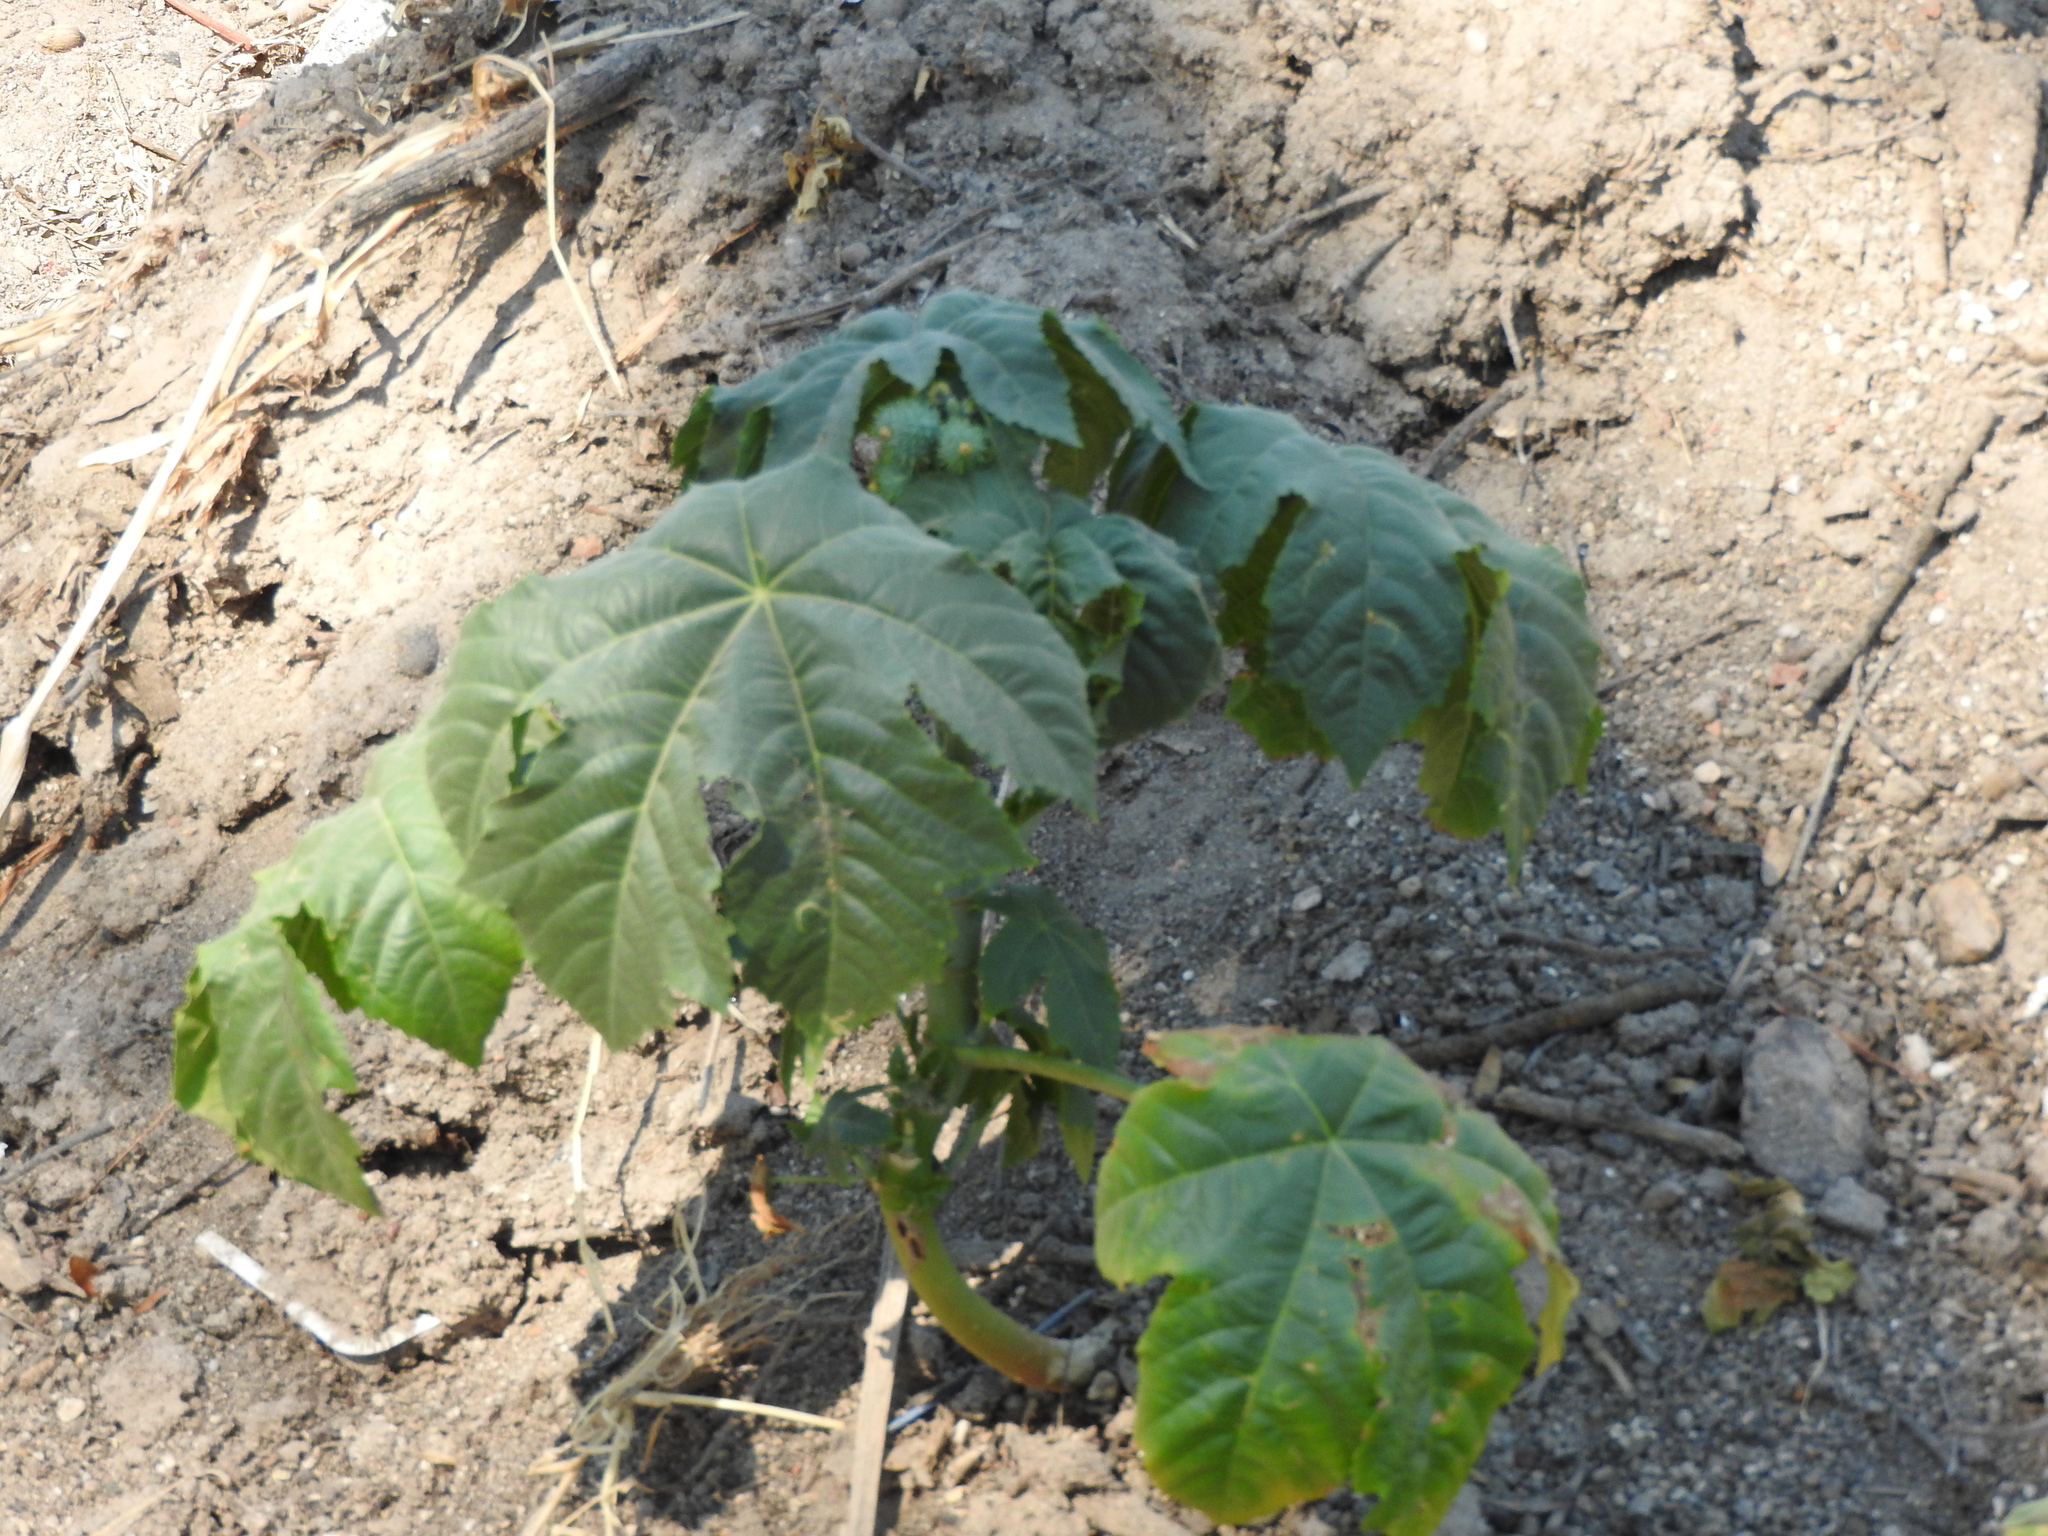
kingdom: Plantae
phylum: Tracheophyta
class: Magnoliopsida
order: Malpighiales
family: Euphorbiaceae
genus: Ricinus
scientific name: Ricinus communis
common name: Castor-oil-plant
